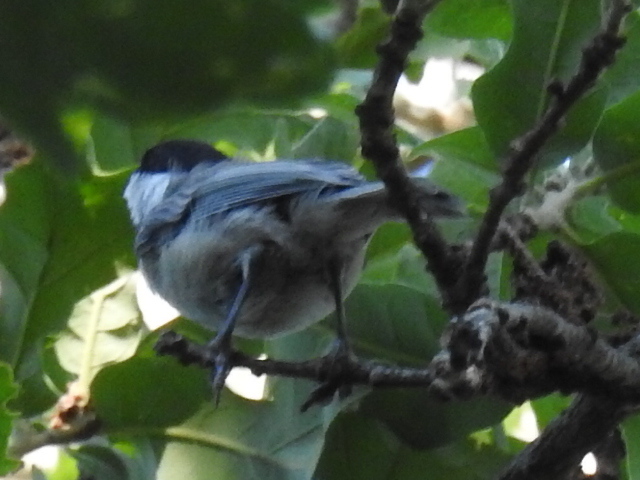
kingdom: Animalia
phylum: Chordata
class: Aves
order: Passeriformes
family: Paridae
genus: Poecile
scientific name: Poecile carolinensis
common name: Carolina chickadee
